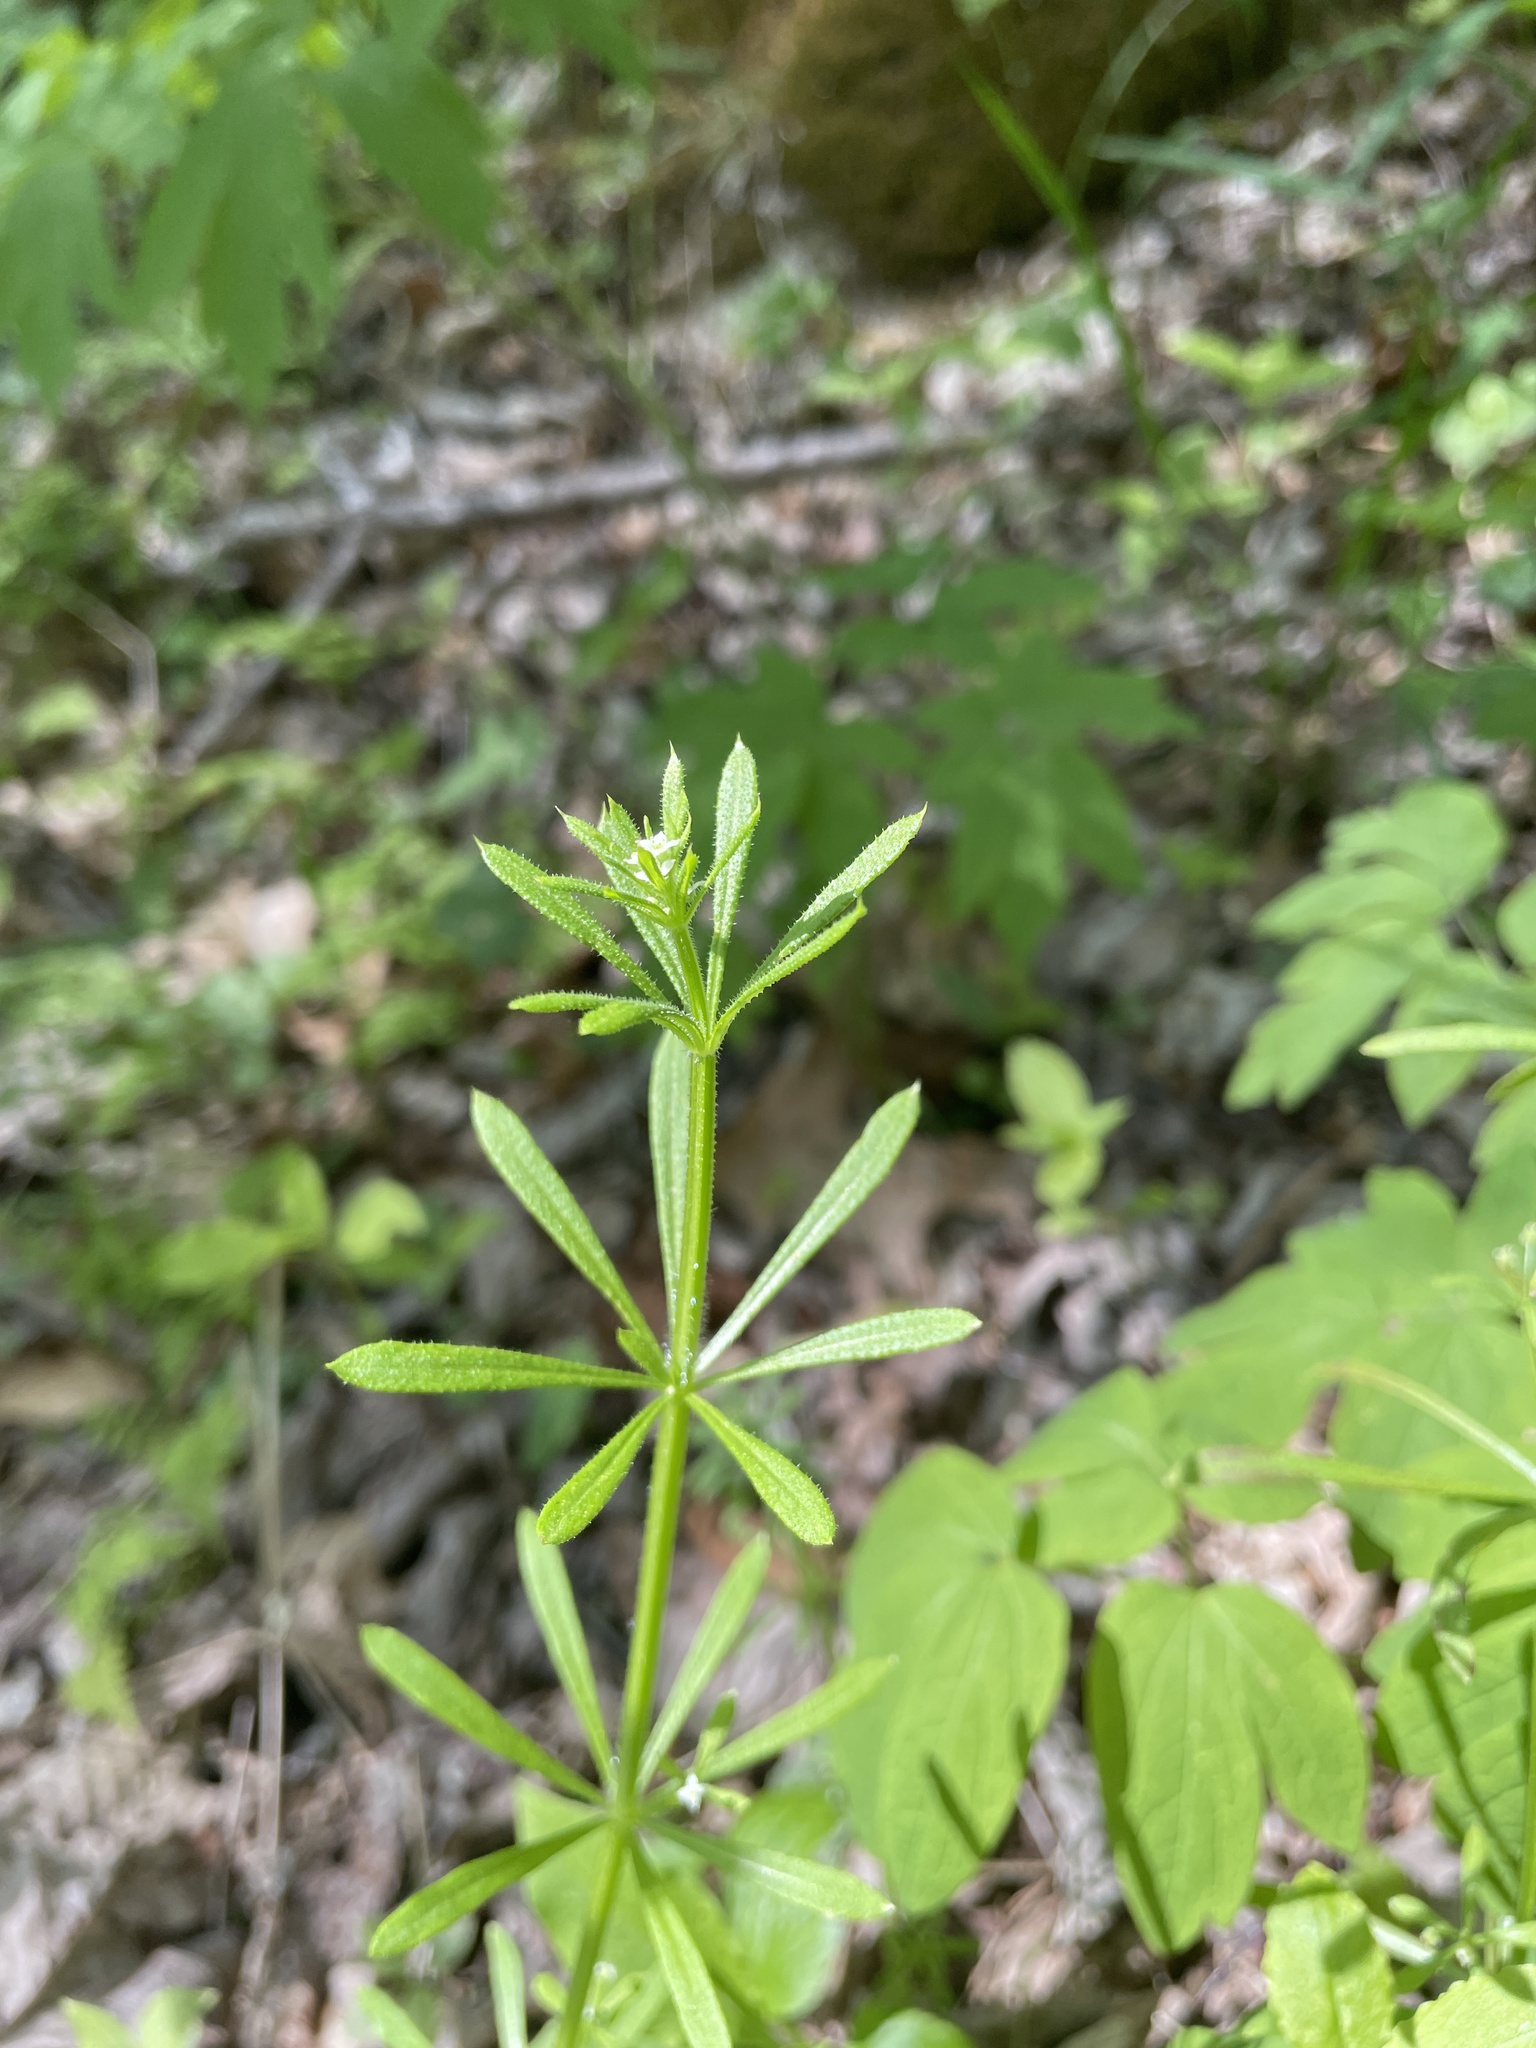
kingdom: Plantae
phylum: Tracheophyta
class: Magnoliopsida
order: Gentianales
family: Rubiaceae
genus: Galium
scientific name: Galium aparine
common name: Cleavers
